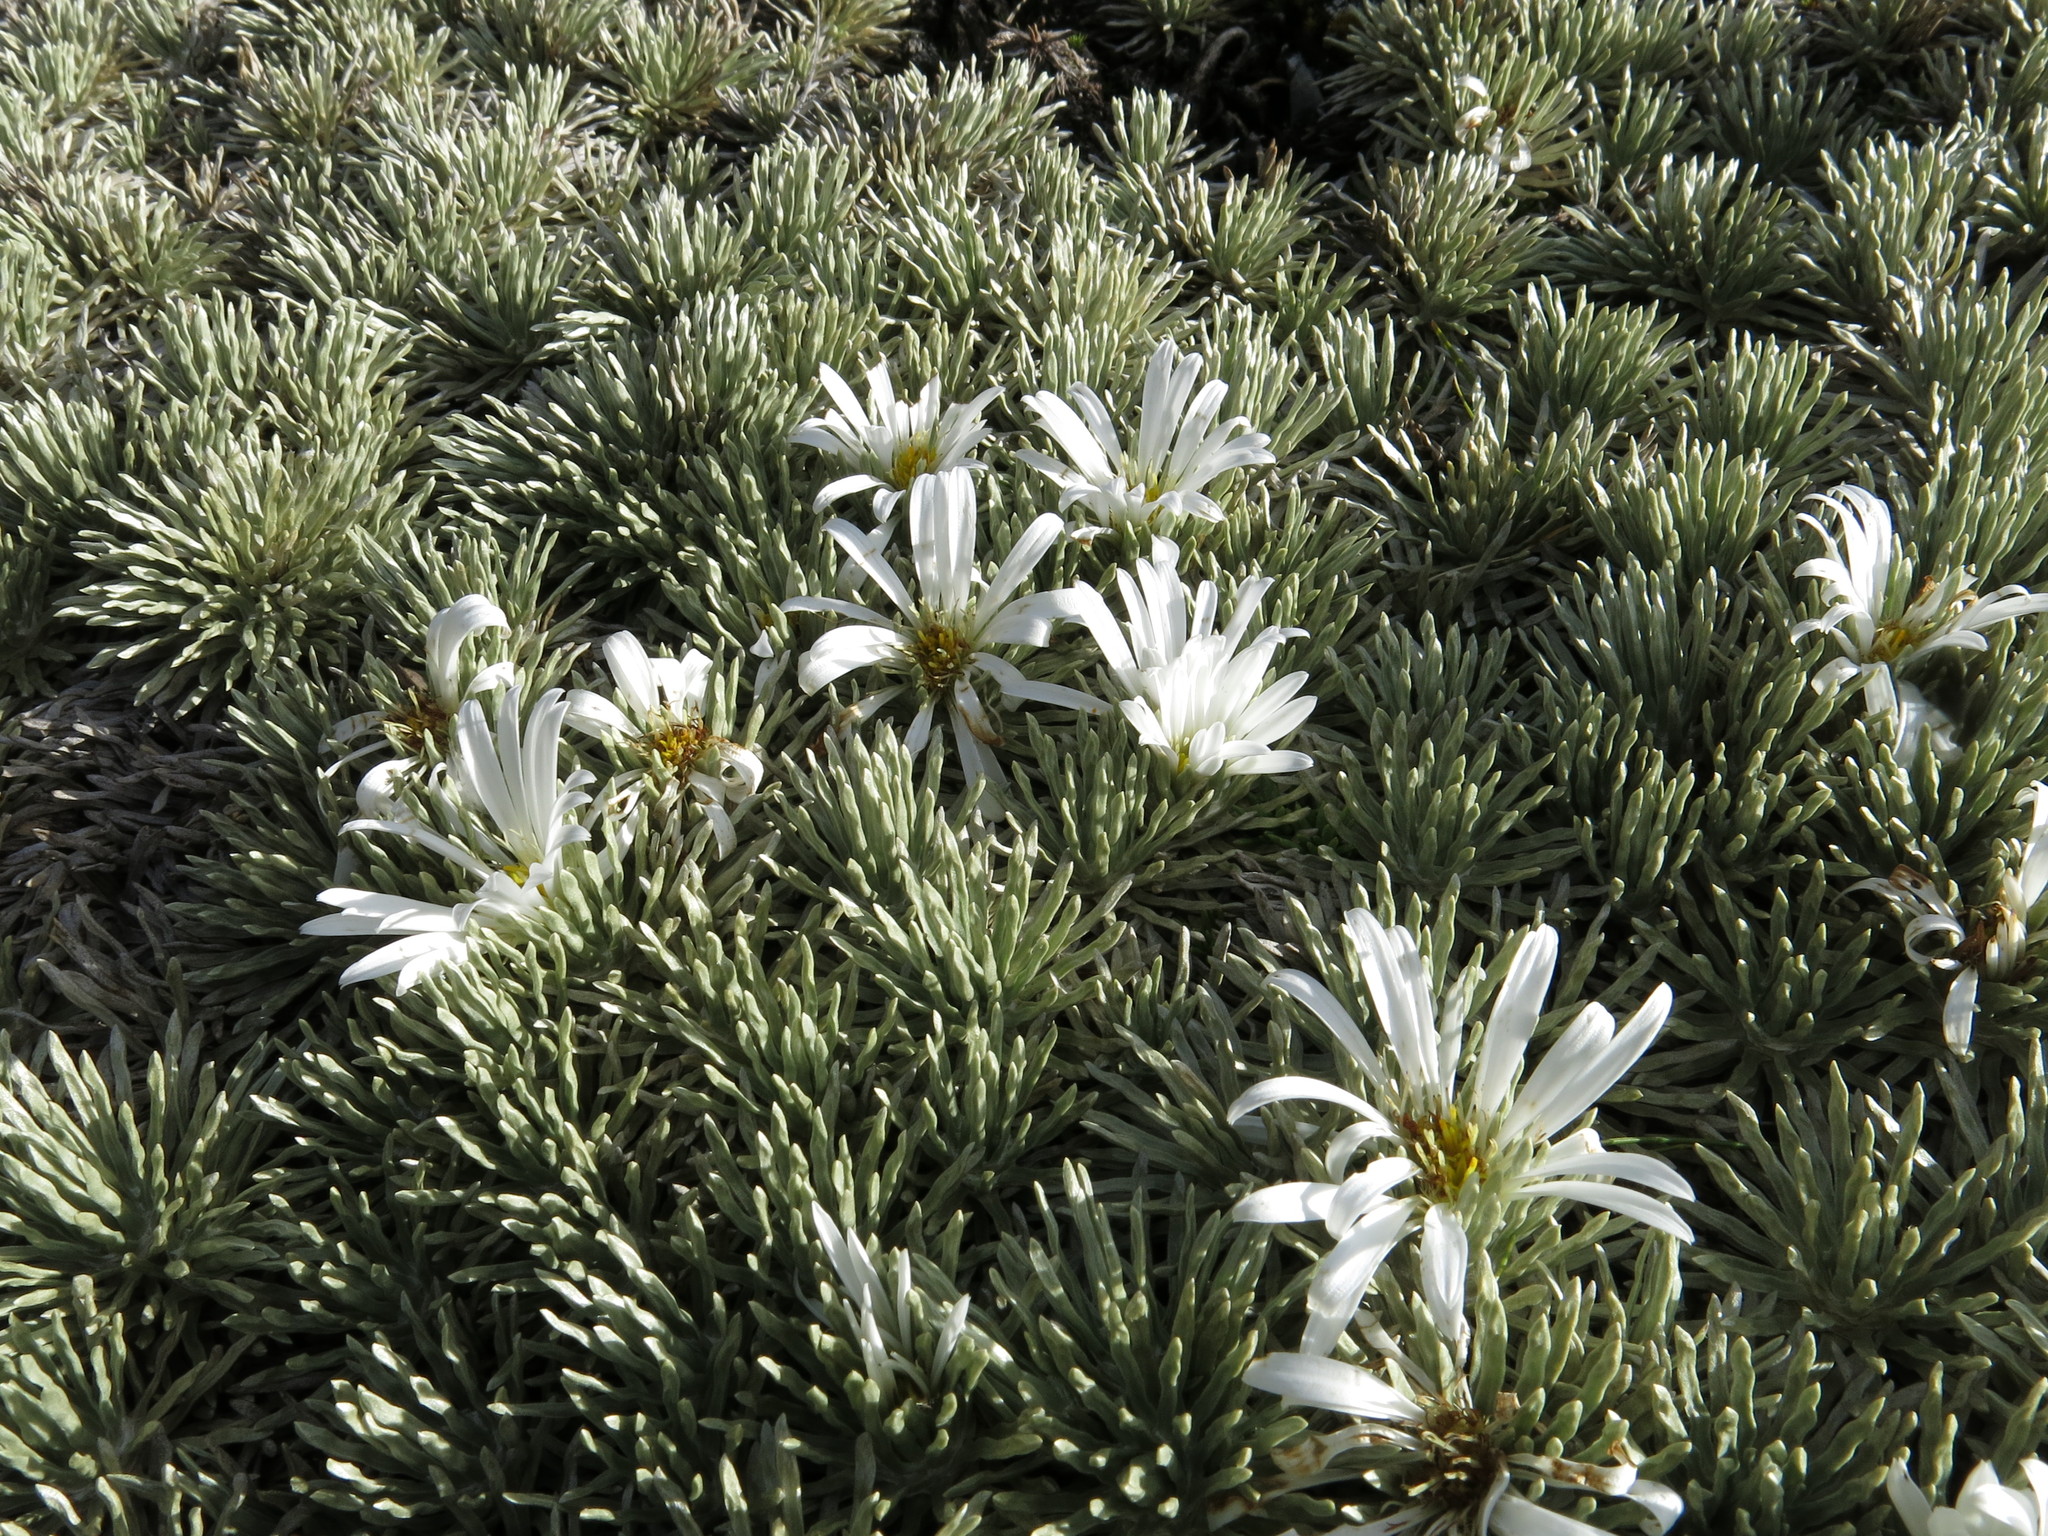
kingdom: Plantae
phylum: Tracheophyta
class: Magnoliopsida
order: Asterales
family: Asteraceae
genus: Celmisia
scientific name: Celmisia sessiliflora
